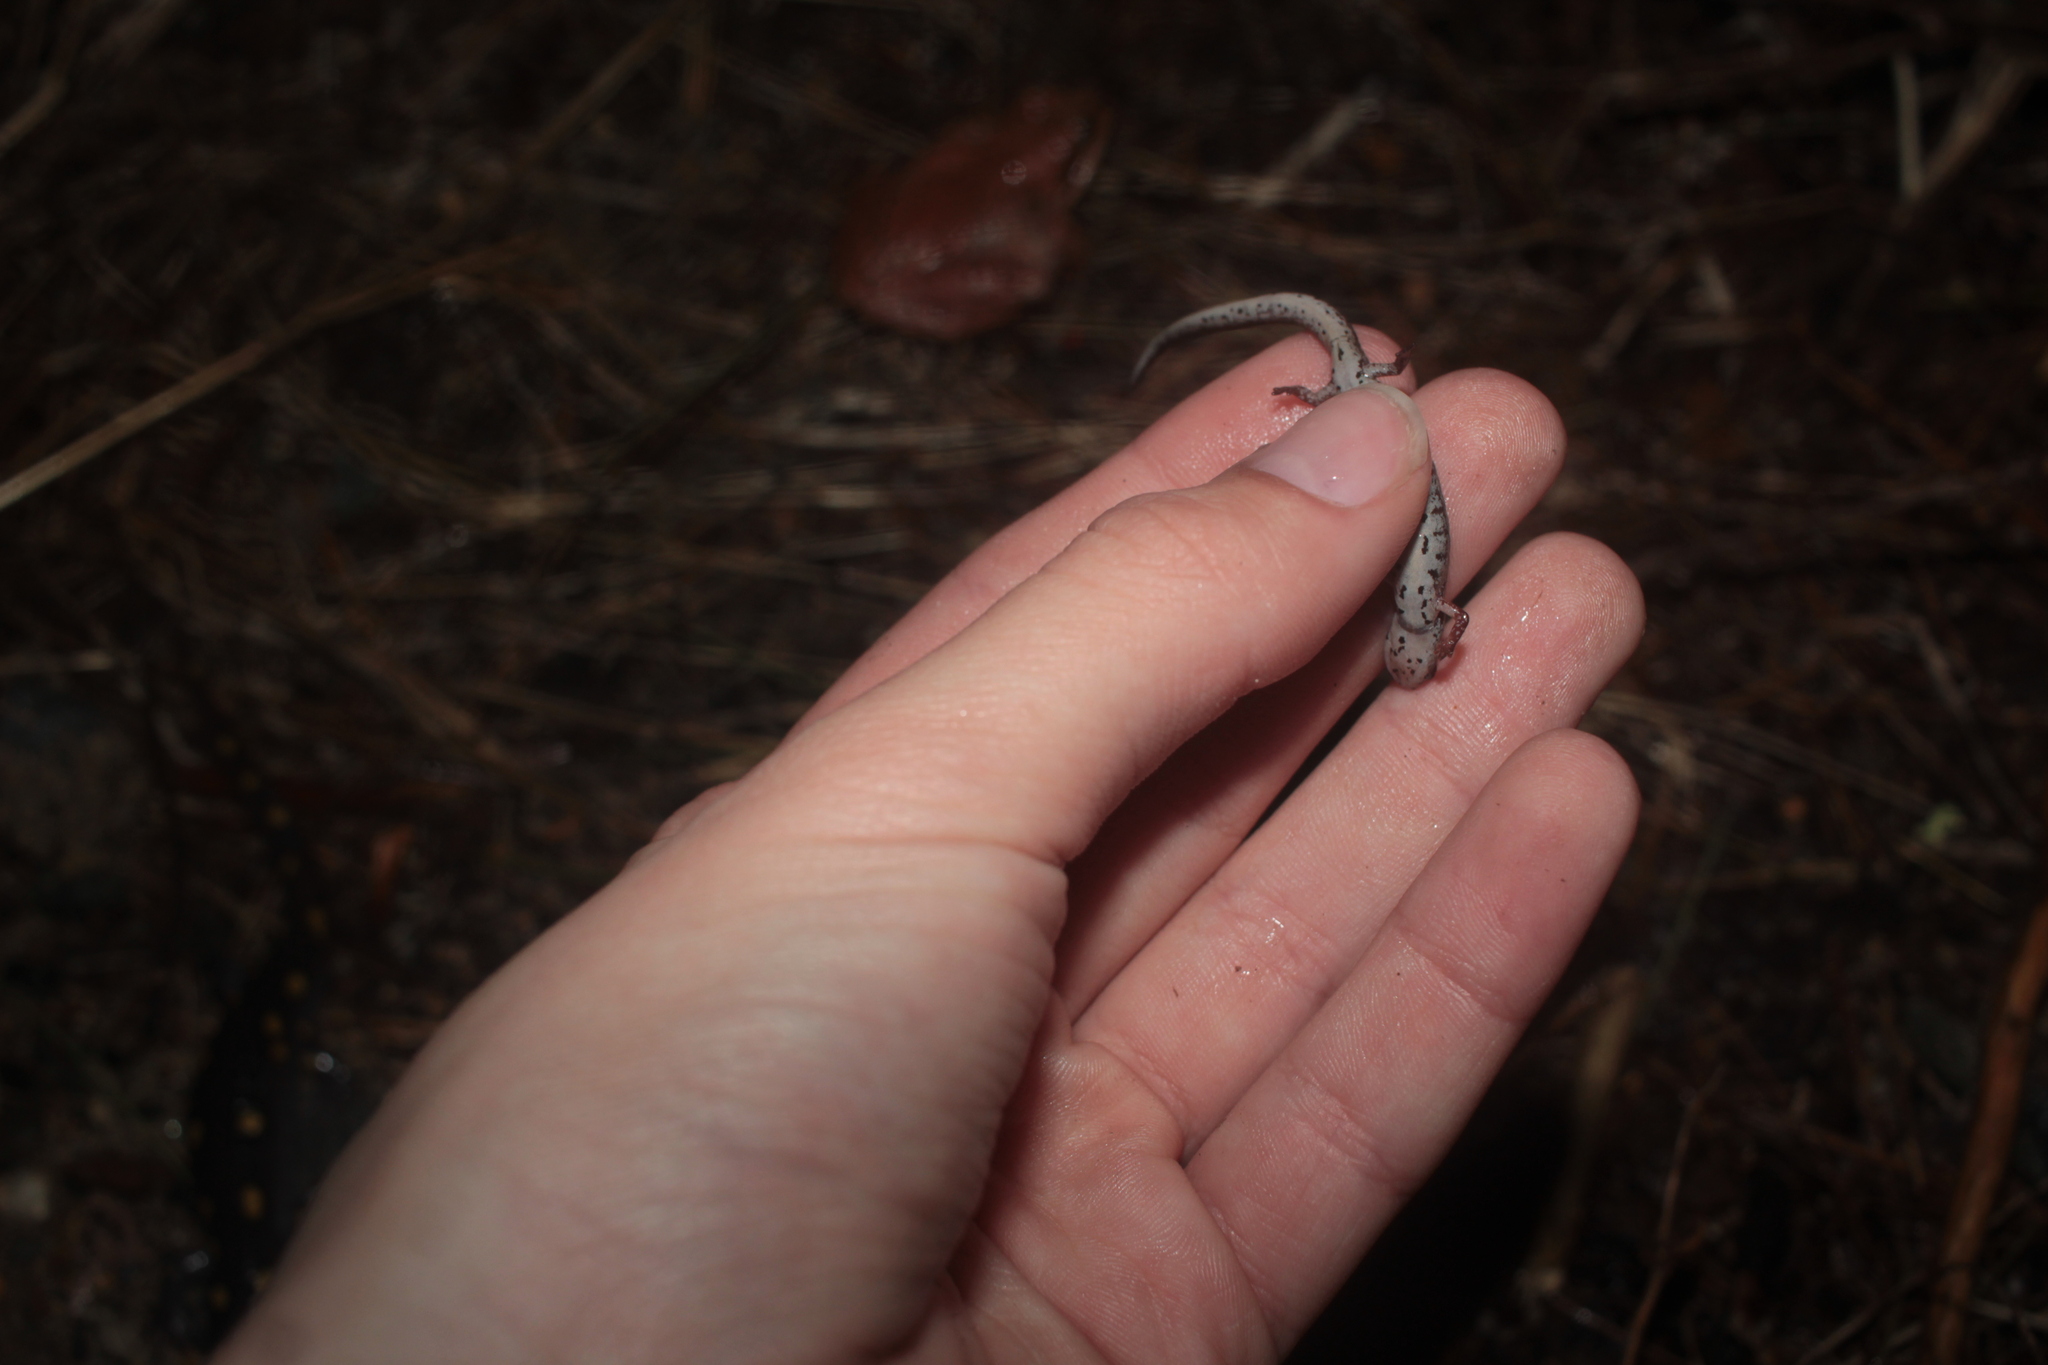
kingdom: Animalia
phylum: Chordata
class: Amphibia
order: Caudata
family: Plethodontidae
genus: Hemidactylium
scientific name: Hemidactylium scutatum
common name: Four-toed salamander
